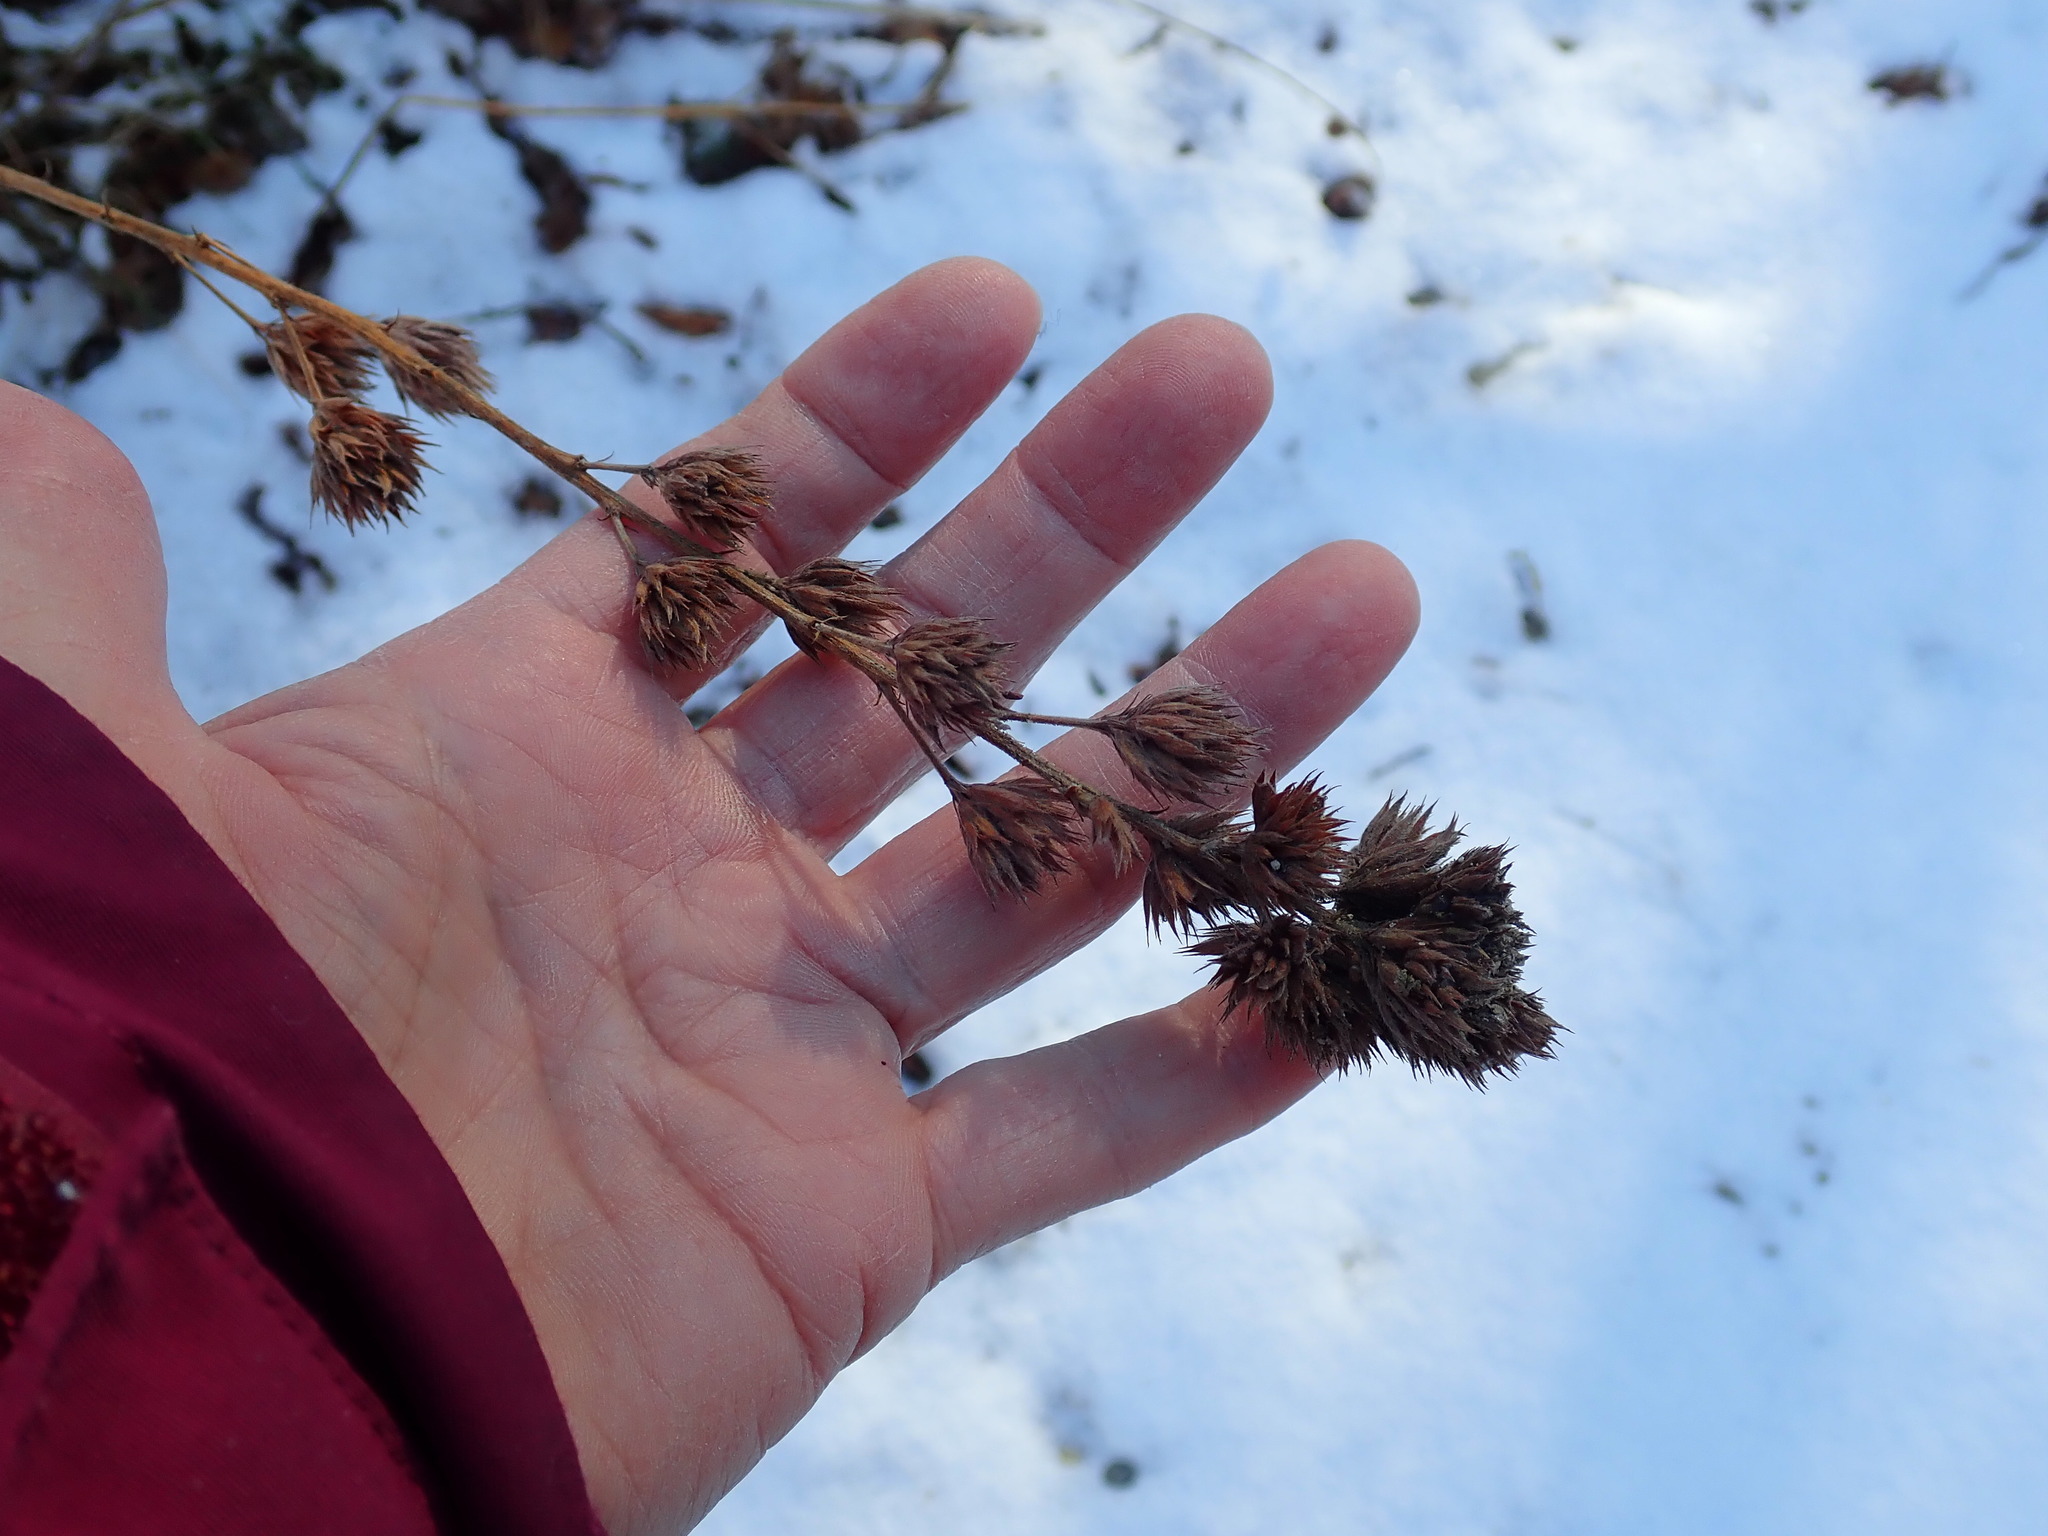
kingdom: Plantae
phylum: Tracheophyta
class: Magnoliopsida
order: Fabales
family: Fabaceae
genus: Lespedeza
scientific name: Lespedeza capitata
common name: Dusty clover
